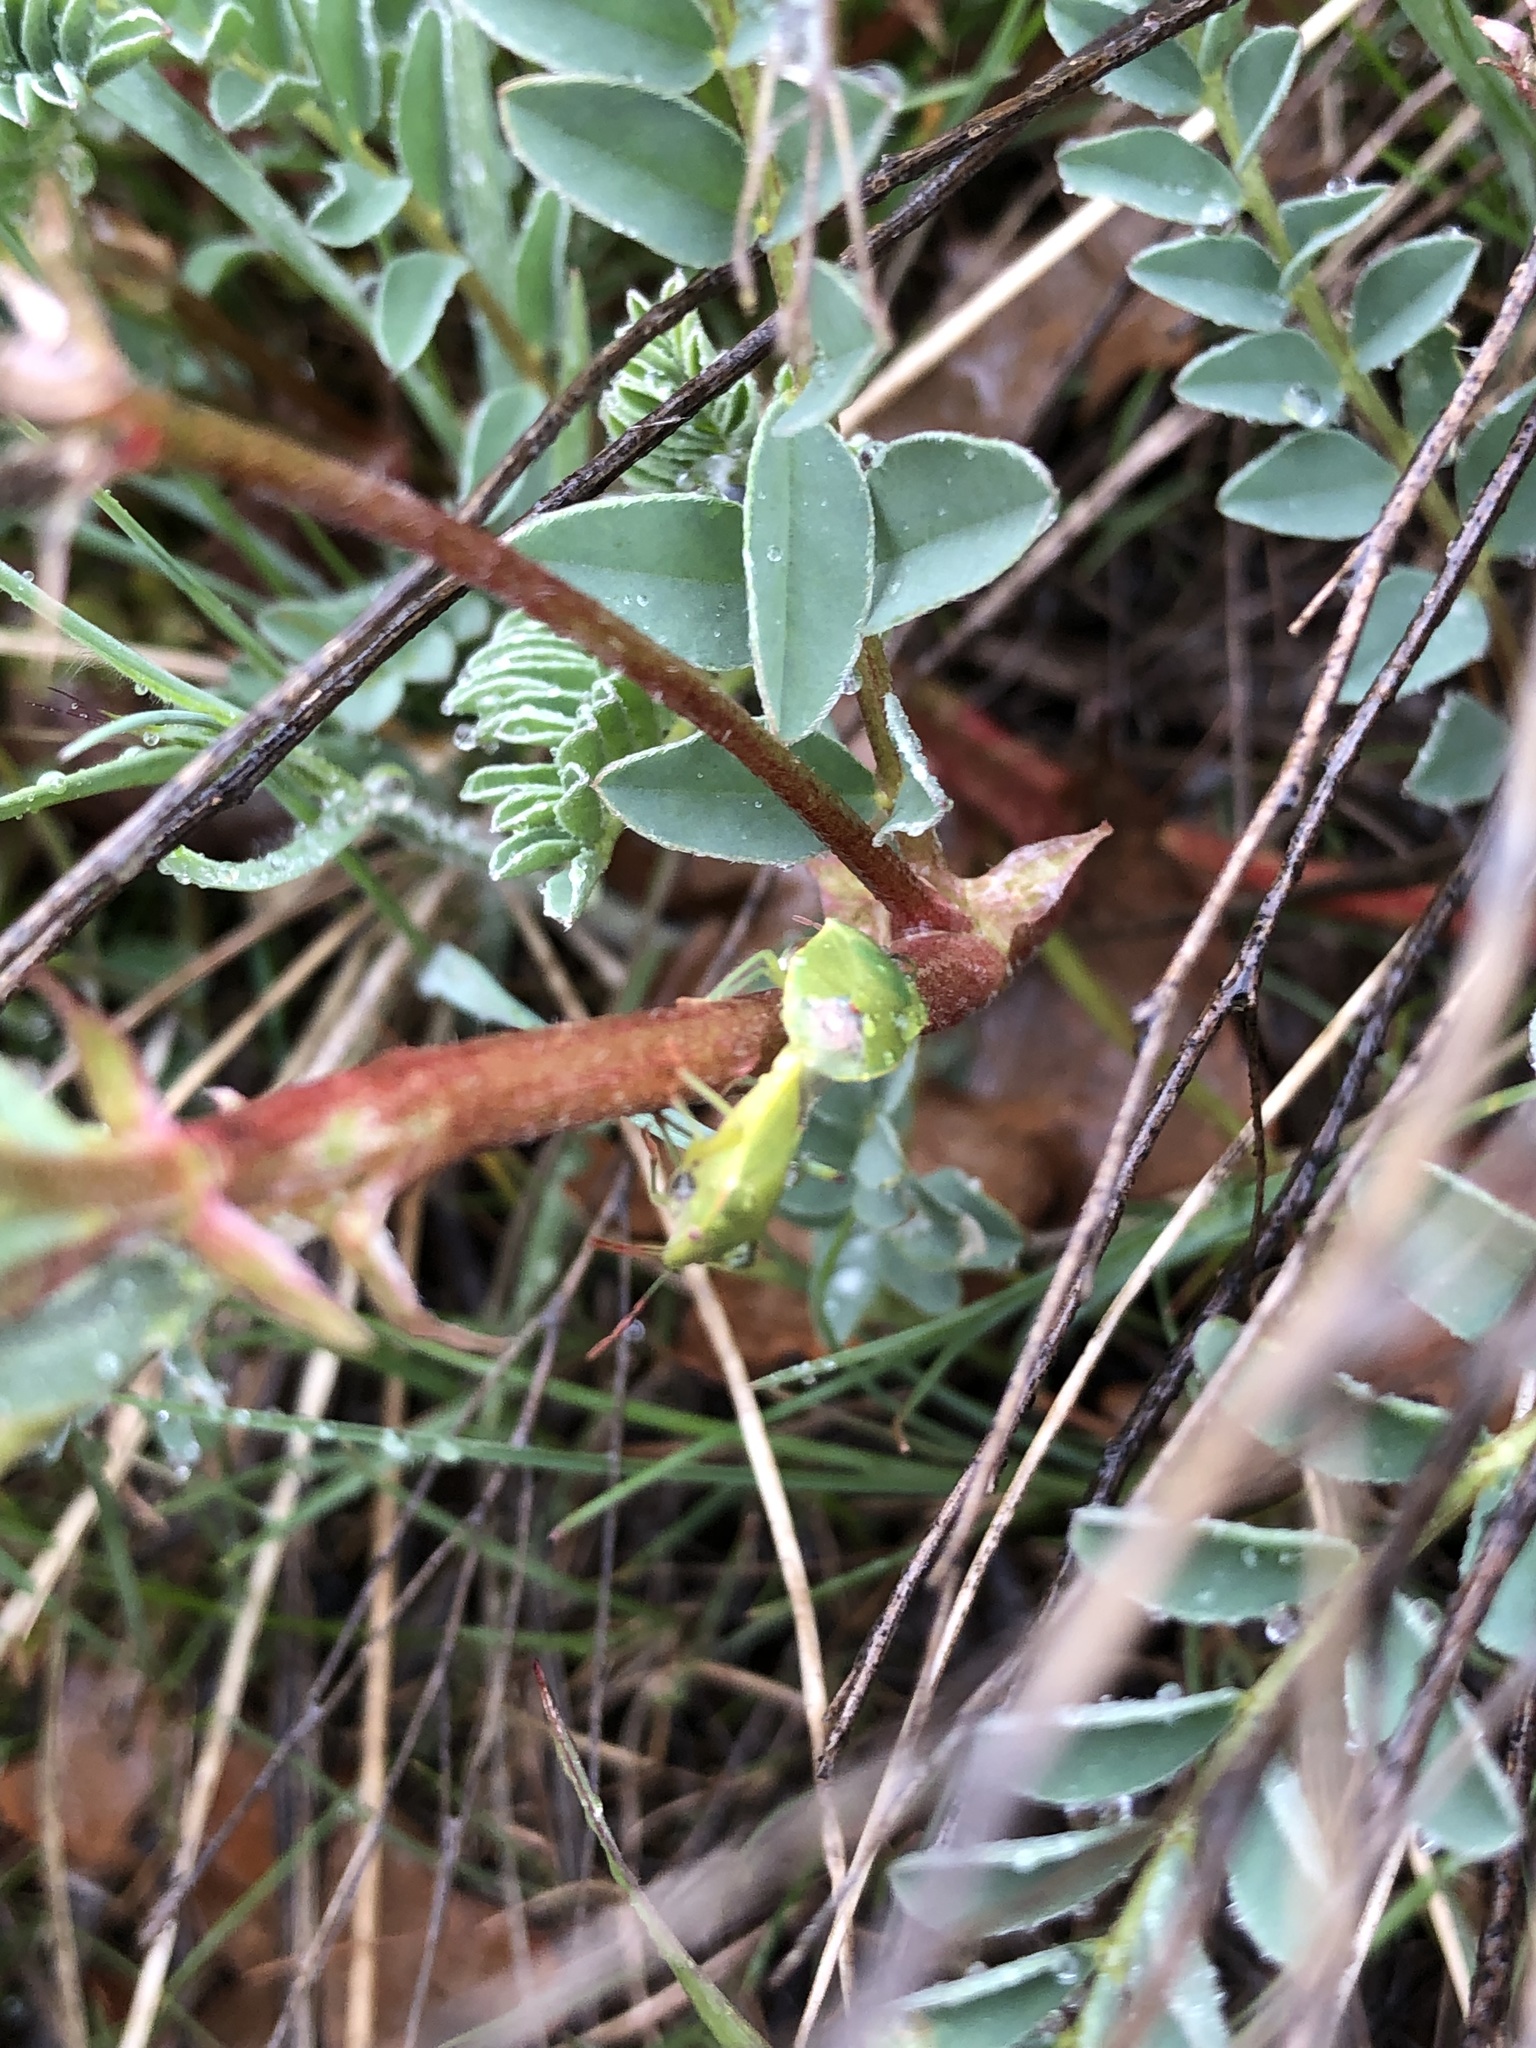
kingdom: Animalia
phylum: Arthropoda
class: Insecta
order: Hemiptera
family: Pentatomidae
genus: Thyanta
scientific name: Thyanta custator
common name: Stink bug
